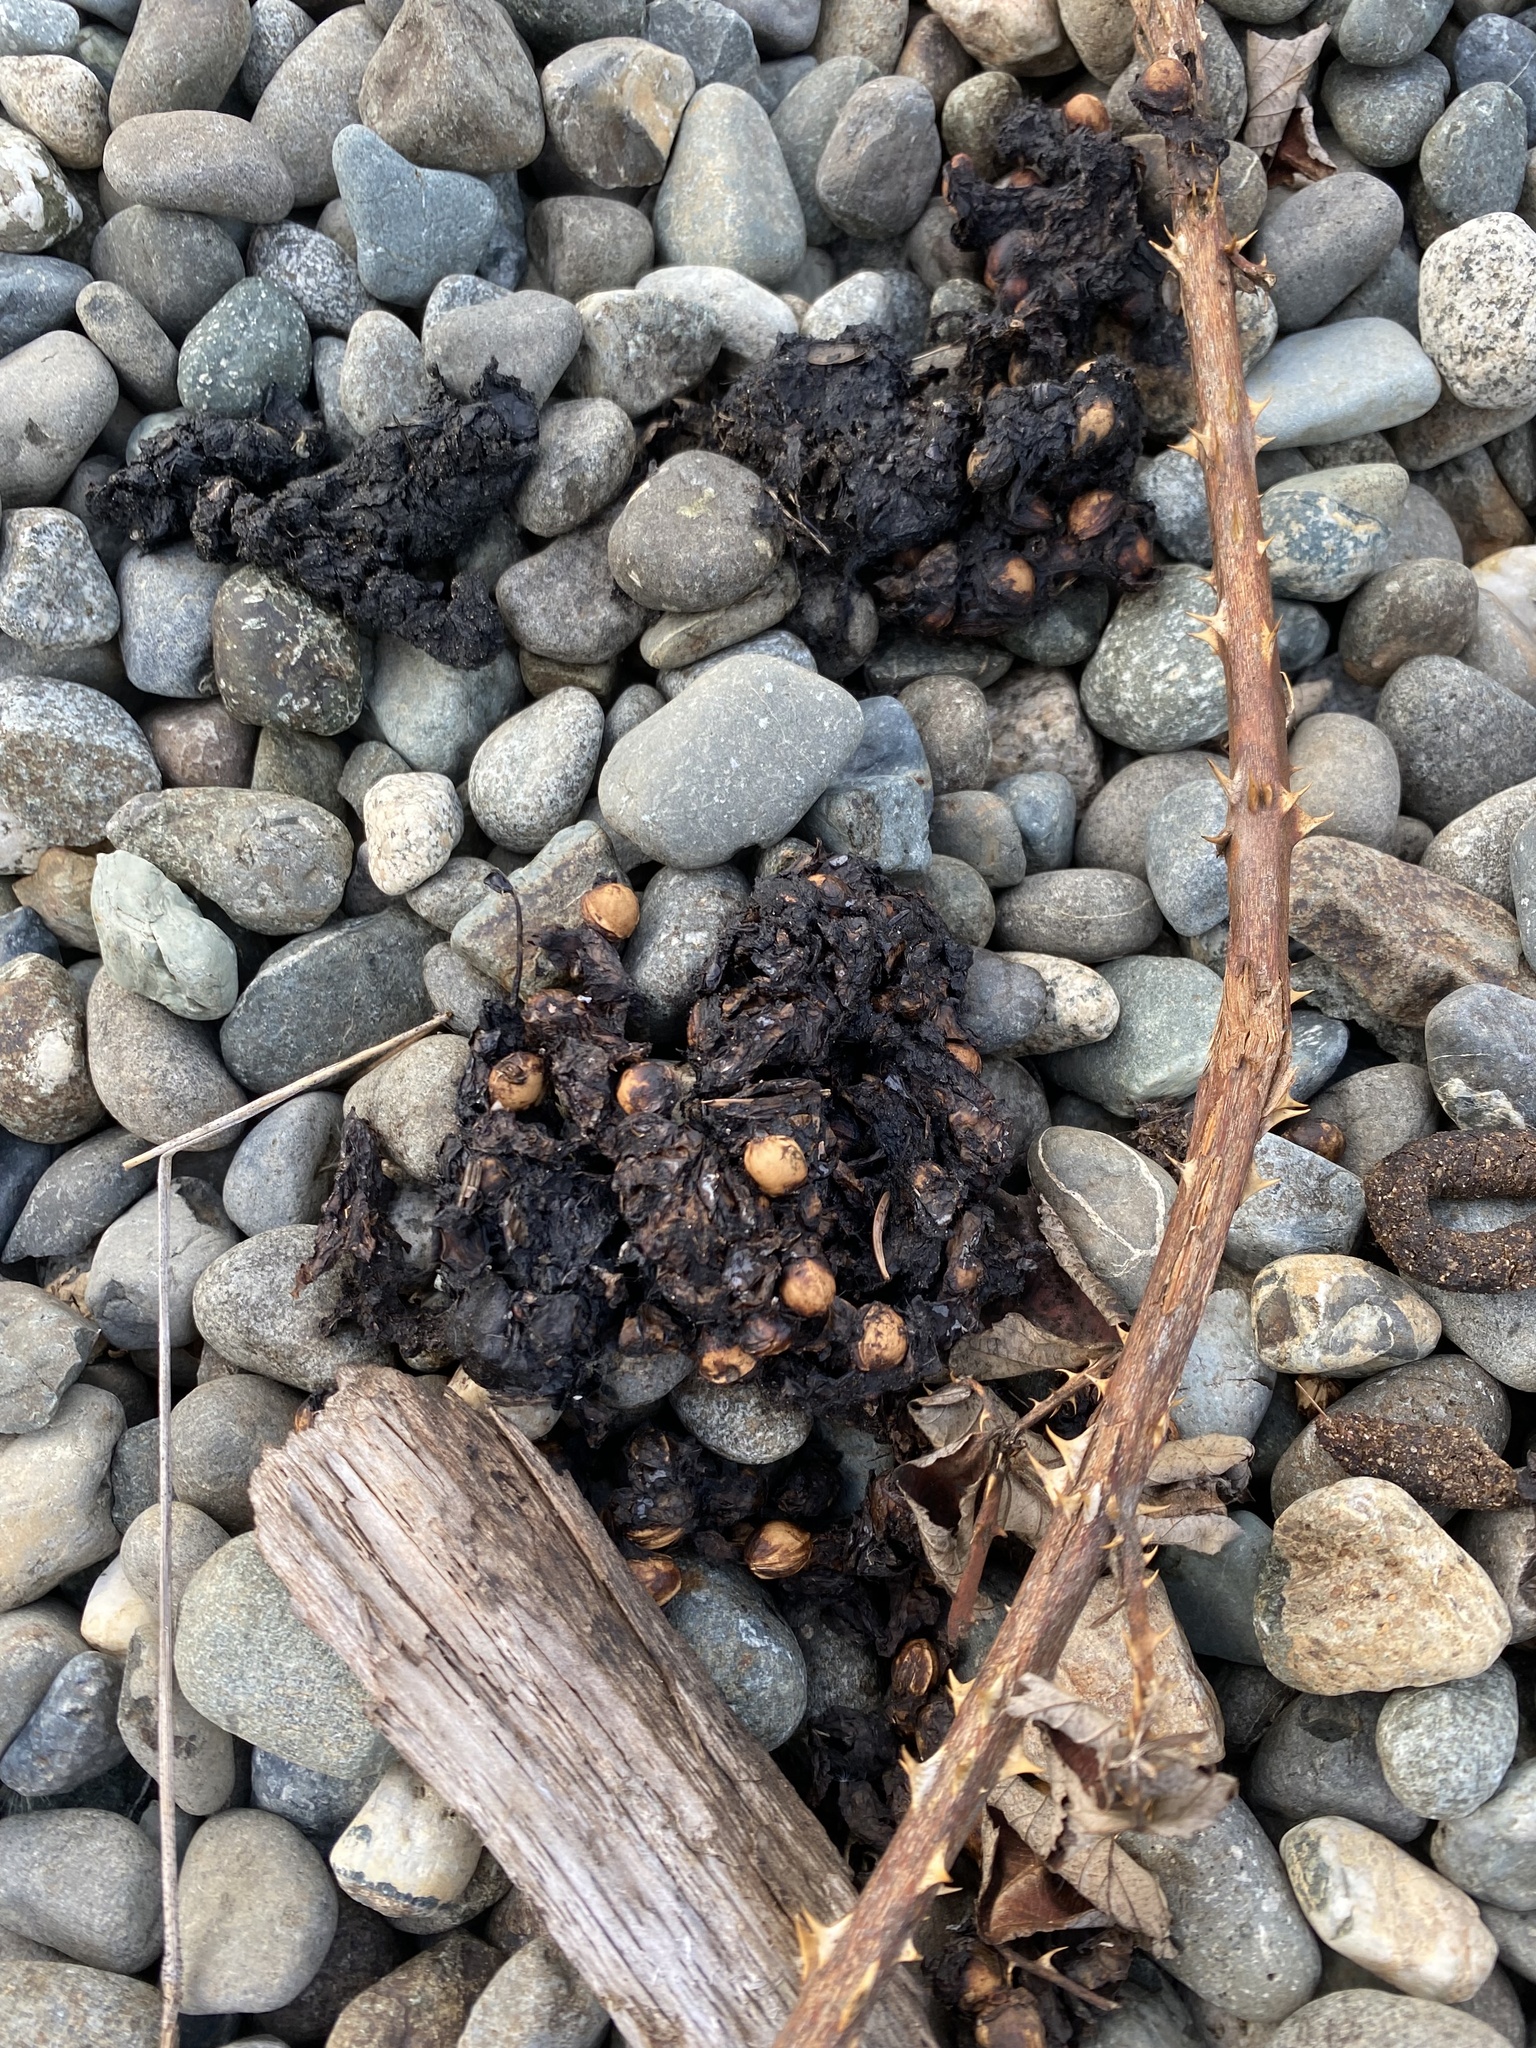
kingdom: Animalia
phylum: Chordata
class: Mammalia
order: Carnivora
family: Ursidae
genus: Ursus
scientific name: Ursus americanus
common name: American black bear
